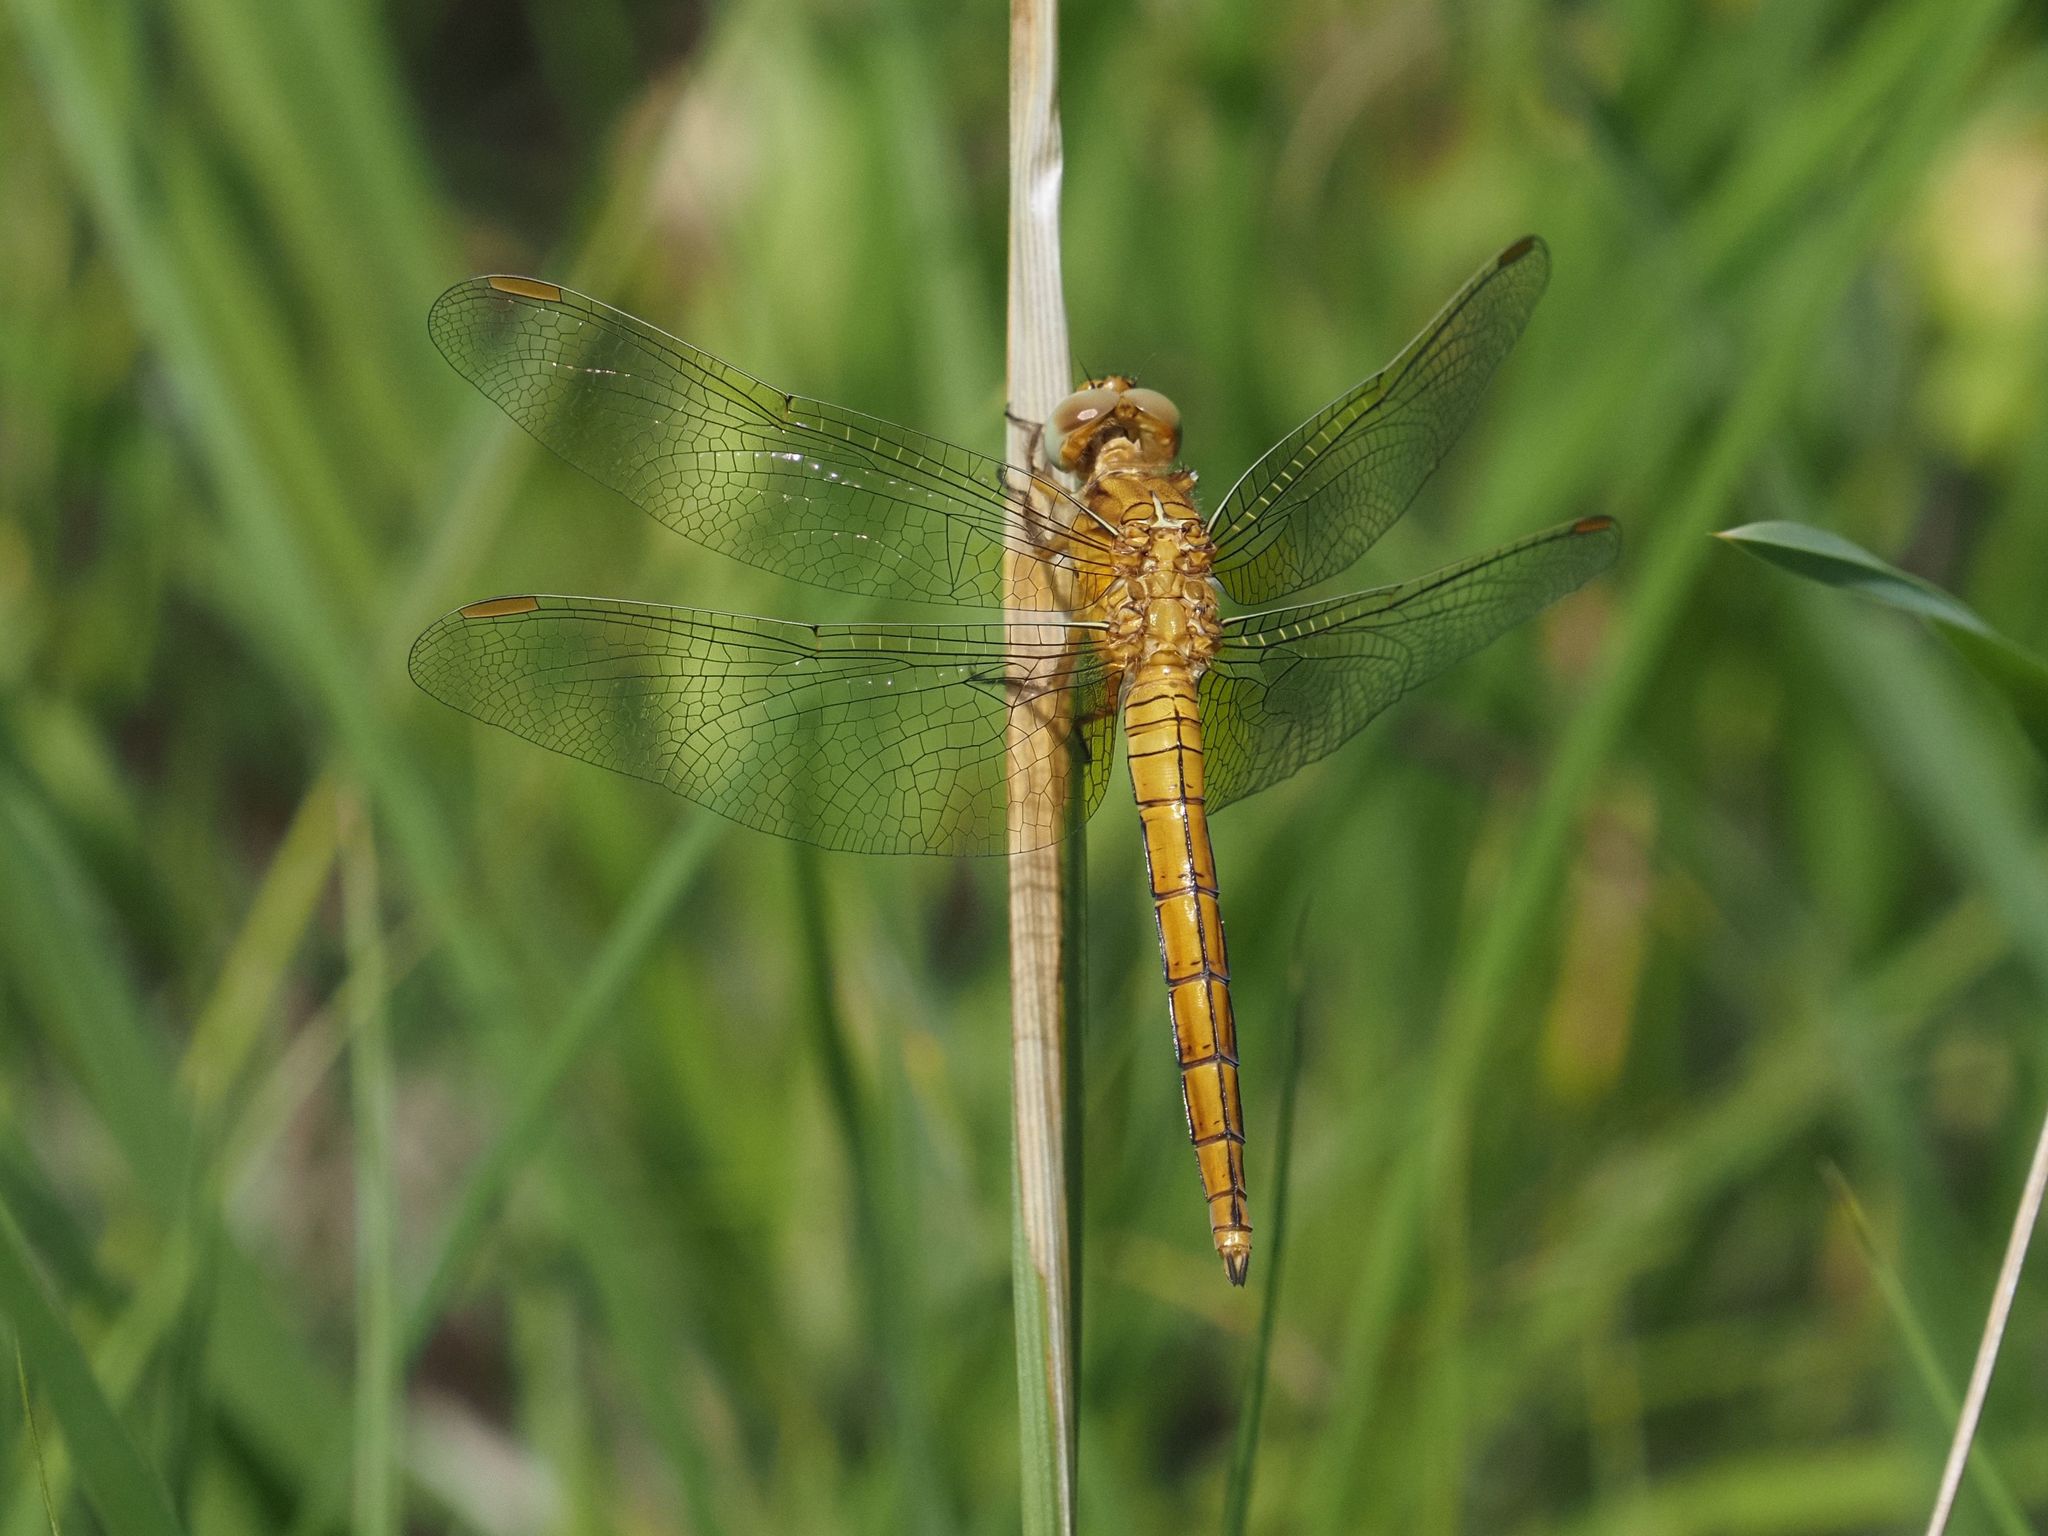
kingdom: Animalia
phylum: Arthropoda
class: Insecta
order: Odonata
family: Libellulidae
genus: Orthetrum
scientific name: Orthetrum coerulescens
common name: Keeled skimmer
